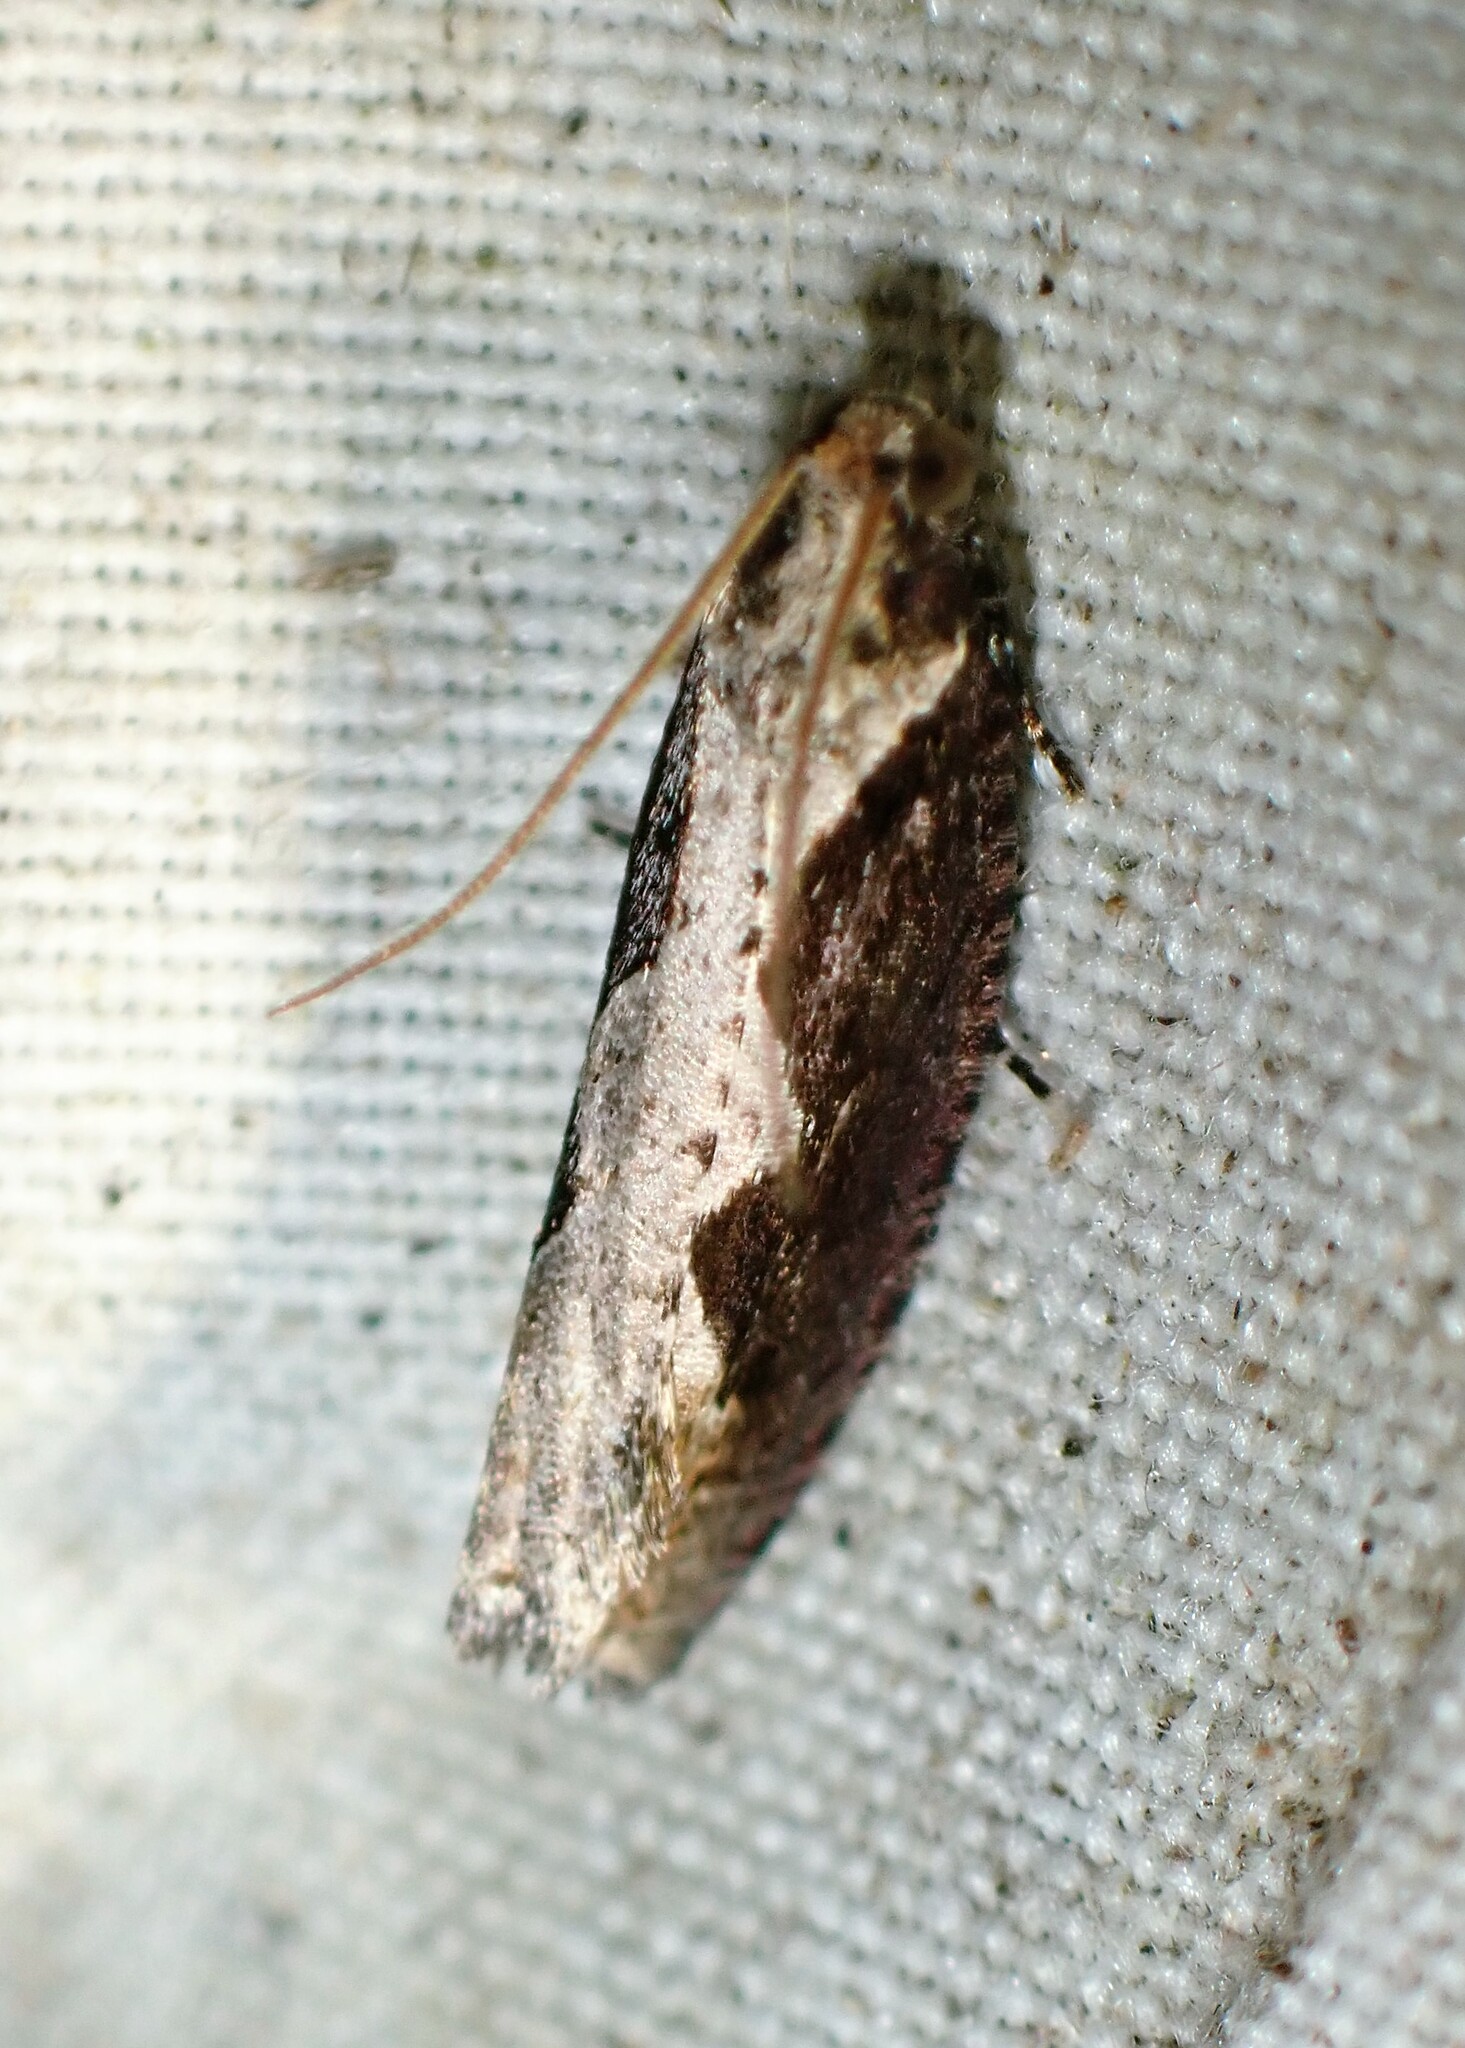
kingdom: Animalia
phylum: Arthropoda
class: Insecta
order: Lepidoptera
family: Tortricidae
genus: Epinotia
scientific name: Epinotia lindana
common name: Diamondback epinotia moth
